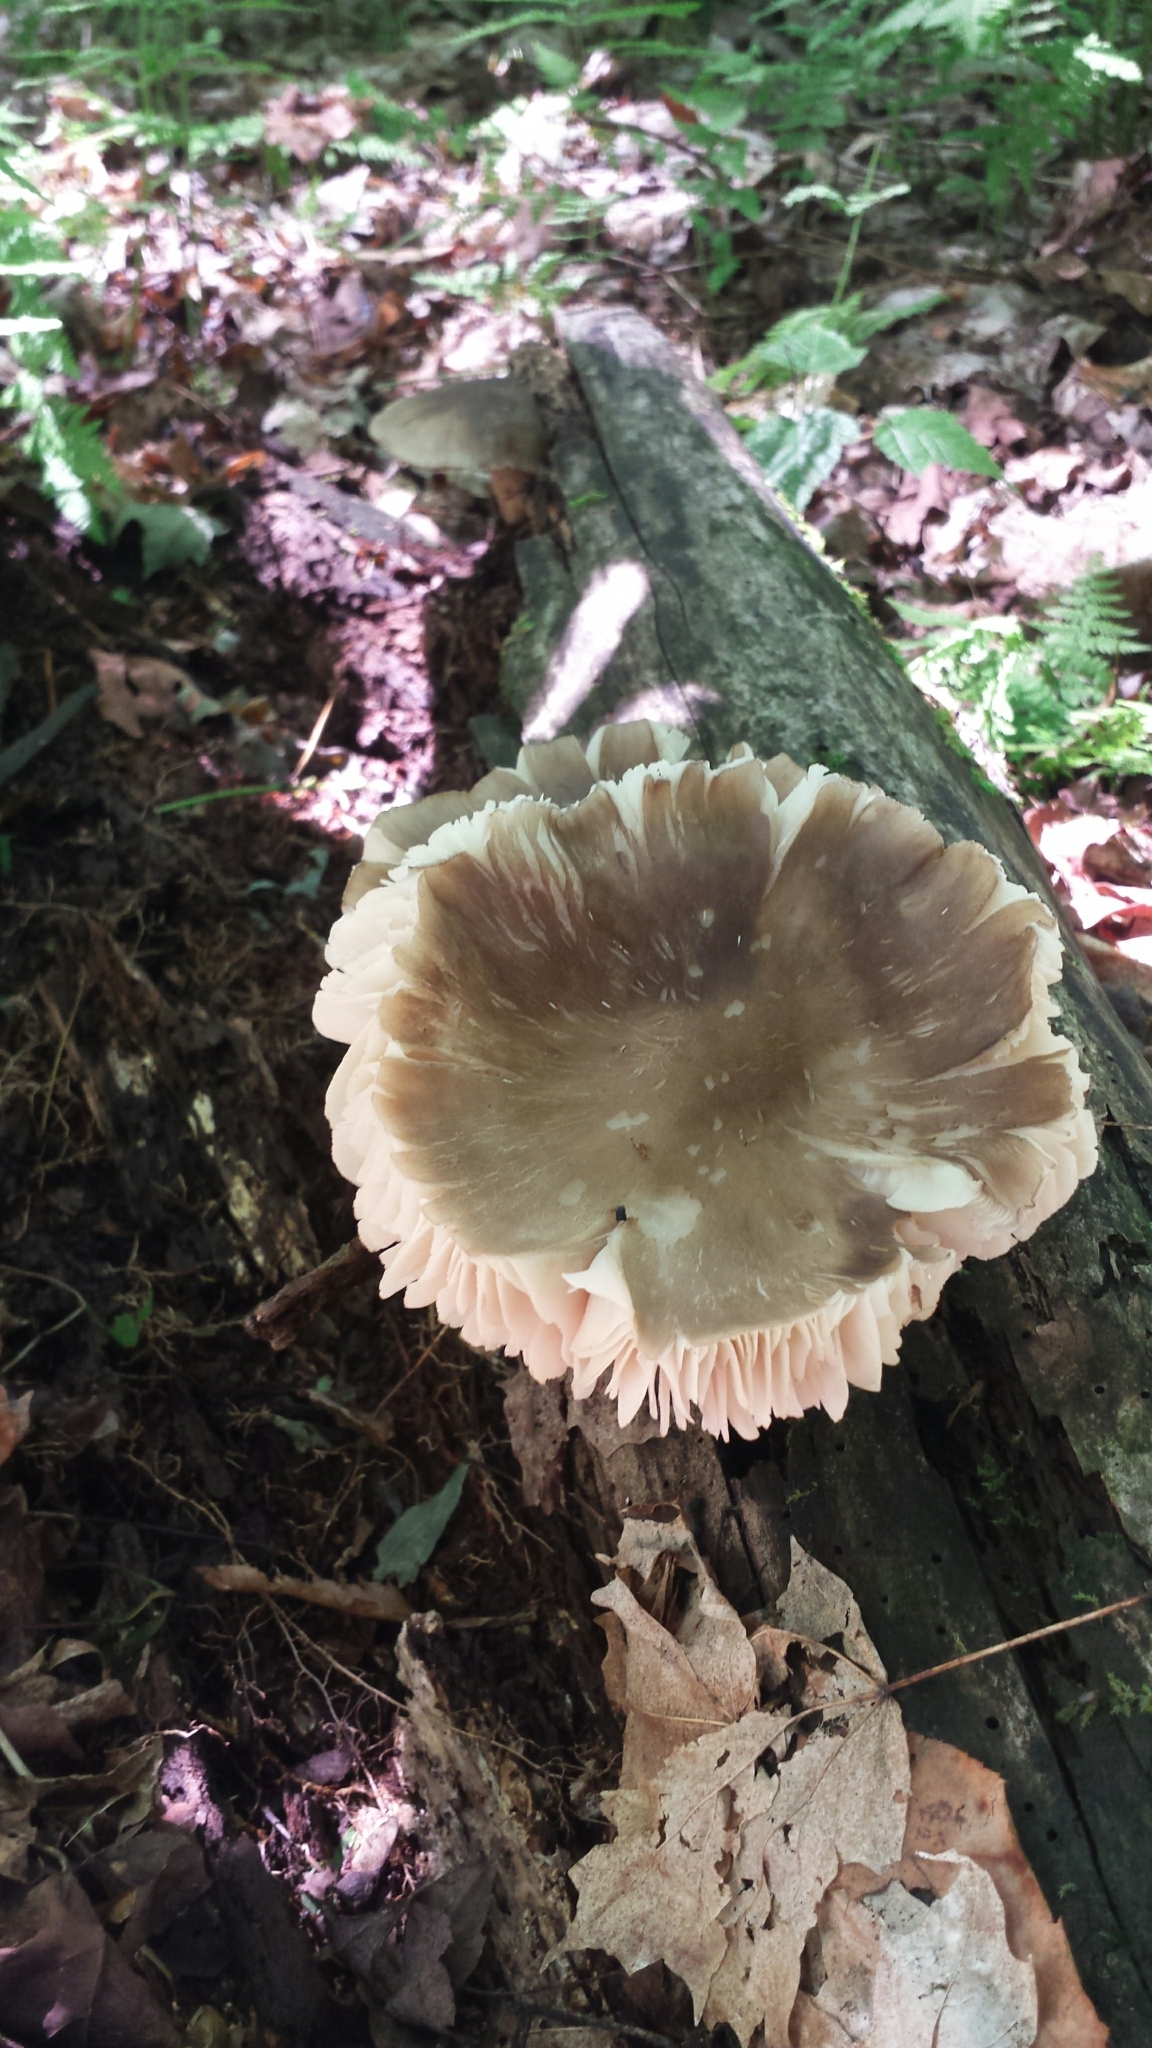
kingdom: Fungi
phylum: Basidiomycota
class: Agaricomycetes
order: Agaricales
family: Tricholomataceae
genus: Megacollybia
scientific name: Megacollybia rodmanii
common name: Eastern american platterful mushroom
